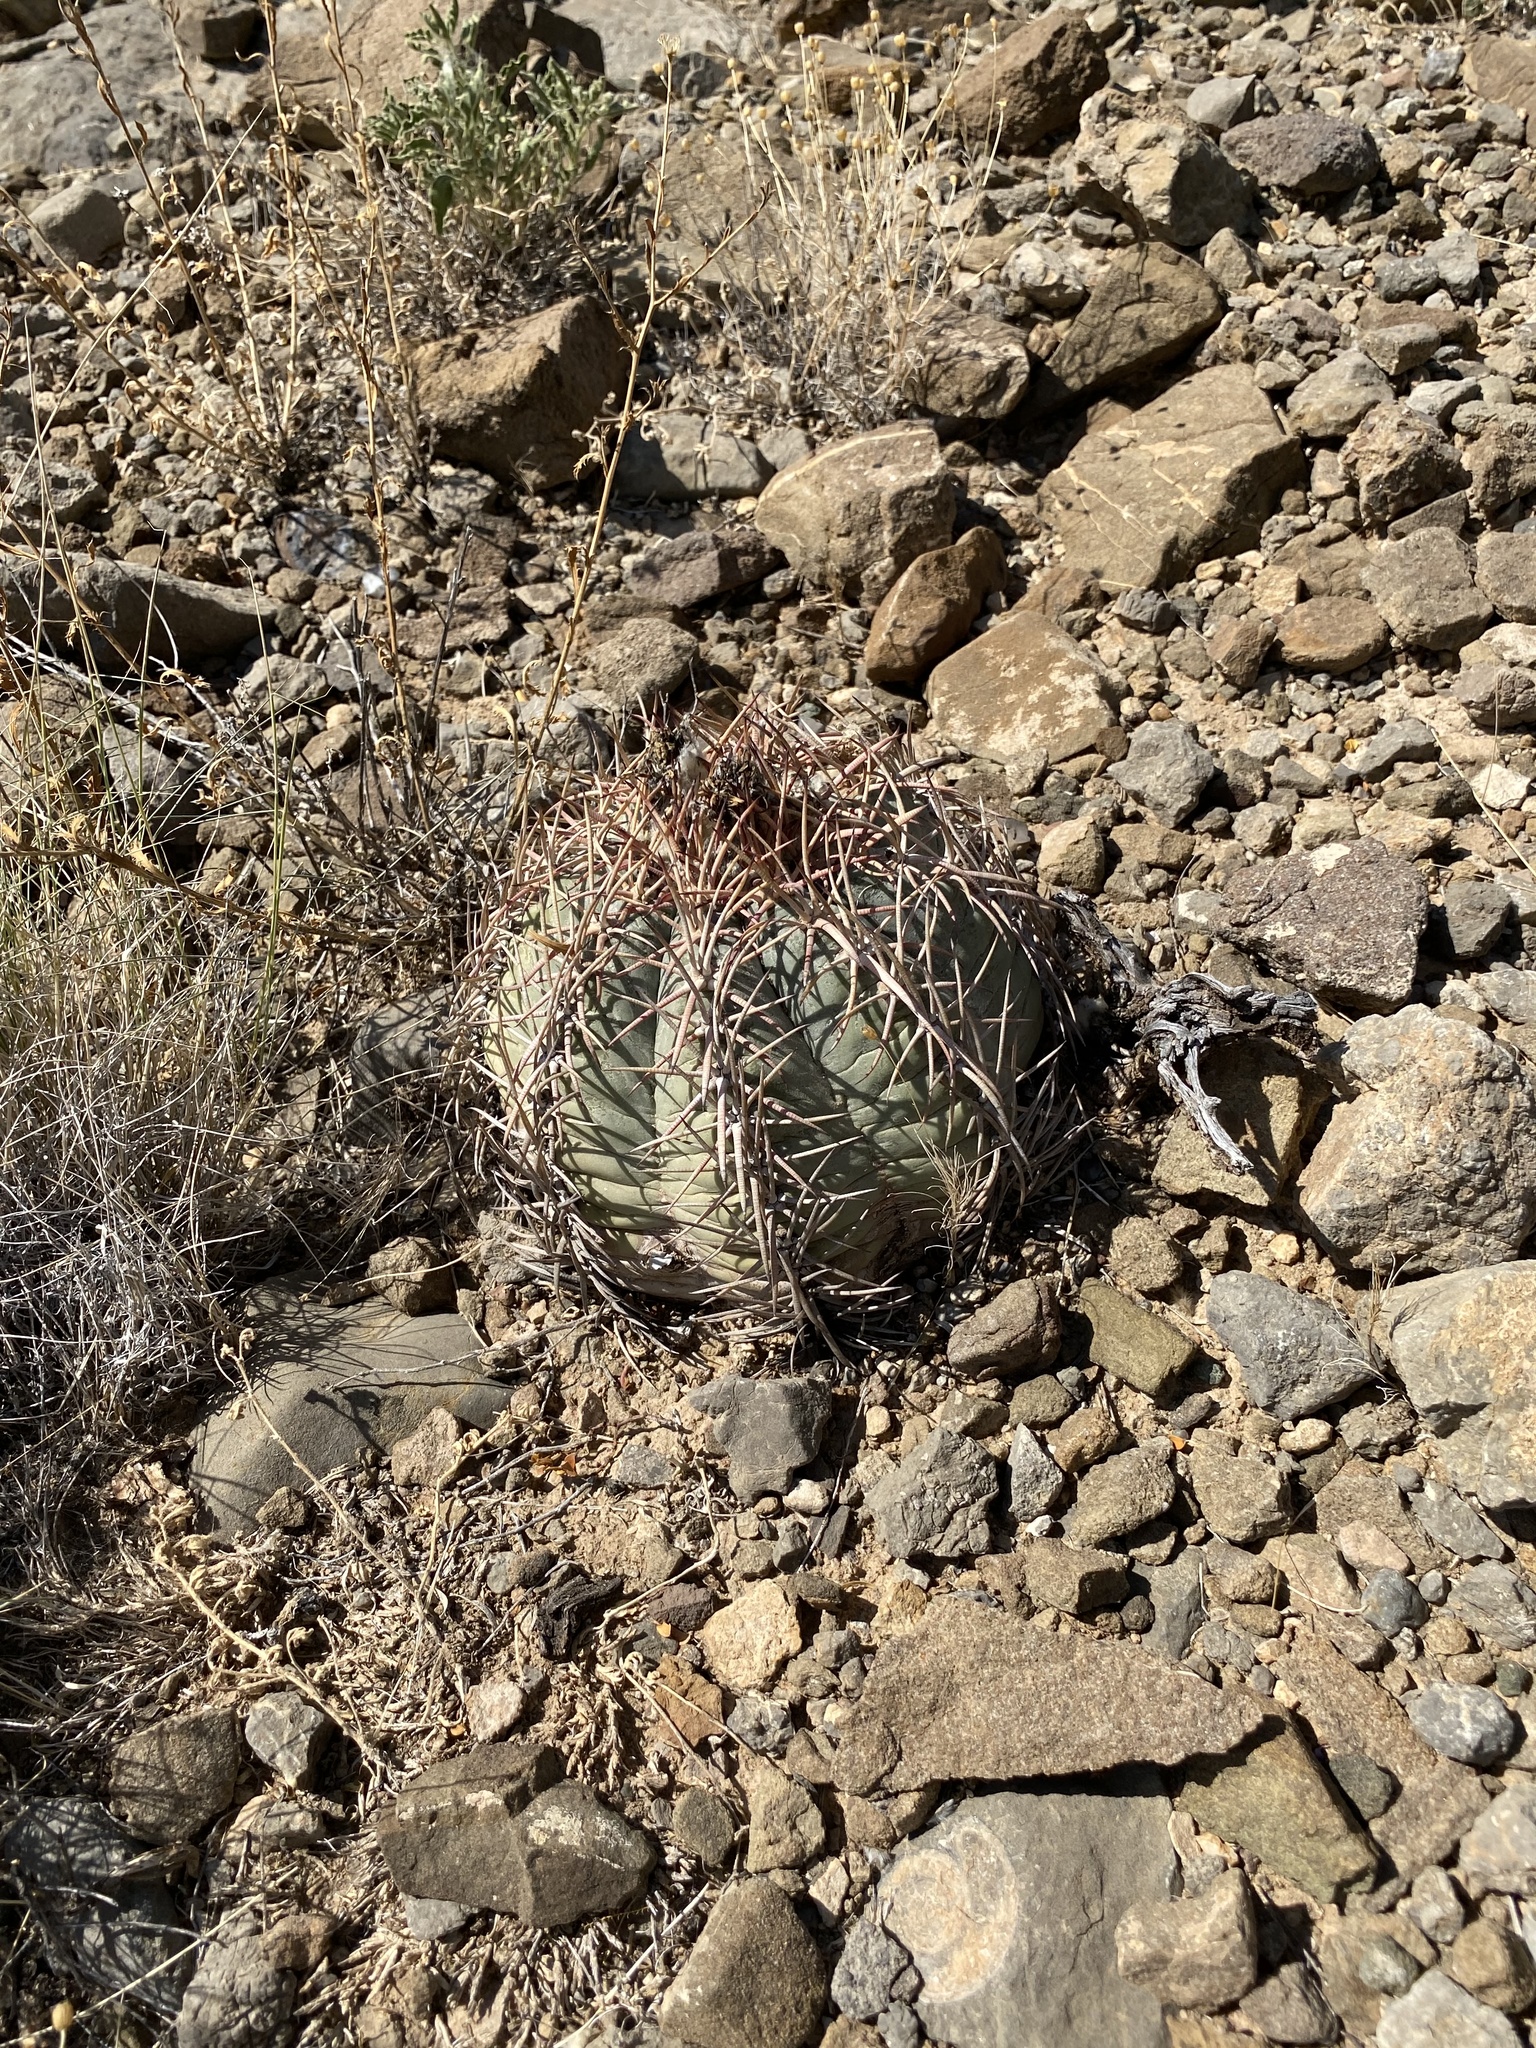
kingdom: Plantae
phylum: Tracheophyta
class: Magnoliopsida
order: Caryophyllales
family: Cactaceae
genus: Echinocactus
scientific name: Echinocactus horizonthalonius
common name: Devilshead
